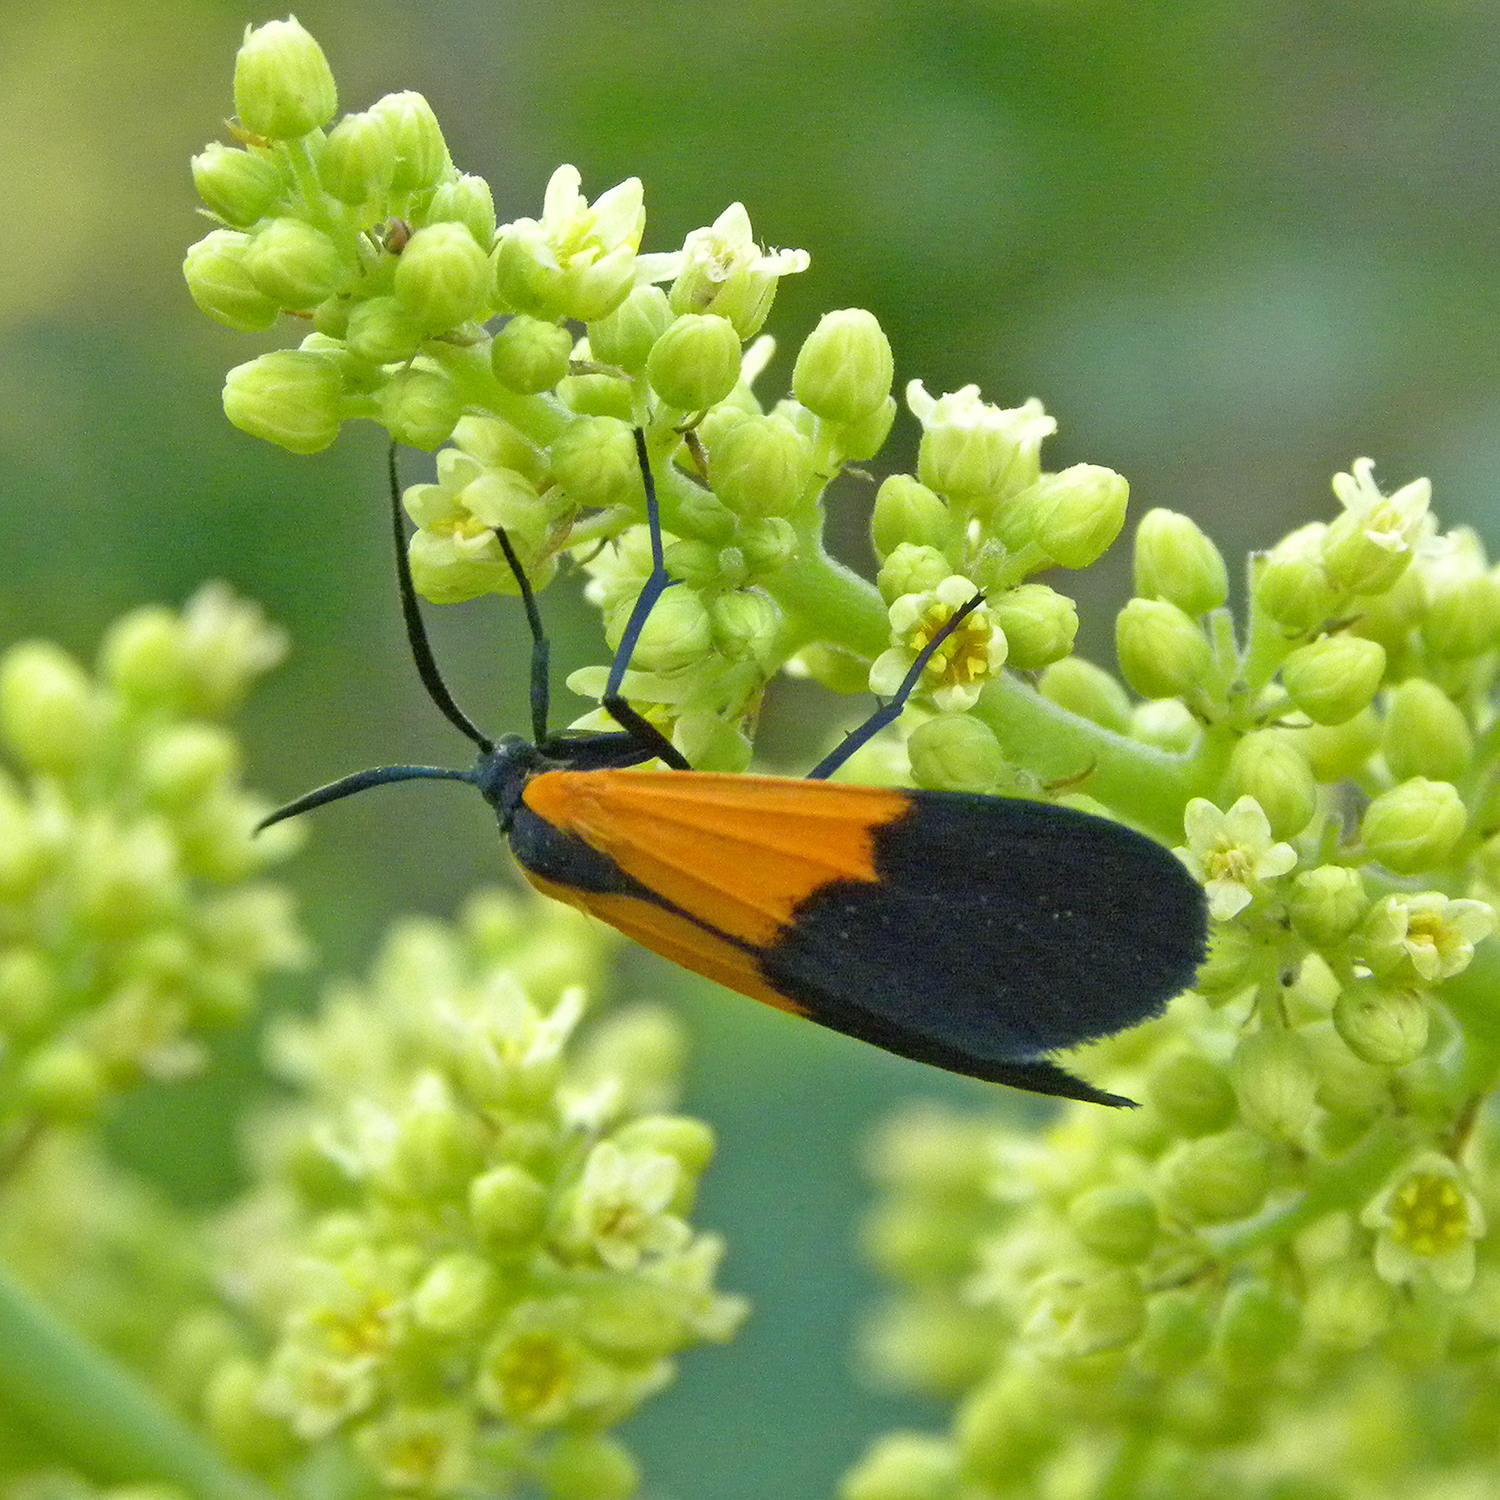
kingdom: Animalia
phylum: Arthropoda
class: Insecta
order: Lepidoptera
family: Erebidae
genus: Lycomorpha
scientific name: Lycomorpha pholus
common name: Black-and-yellow lichen moth
